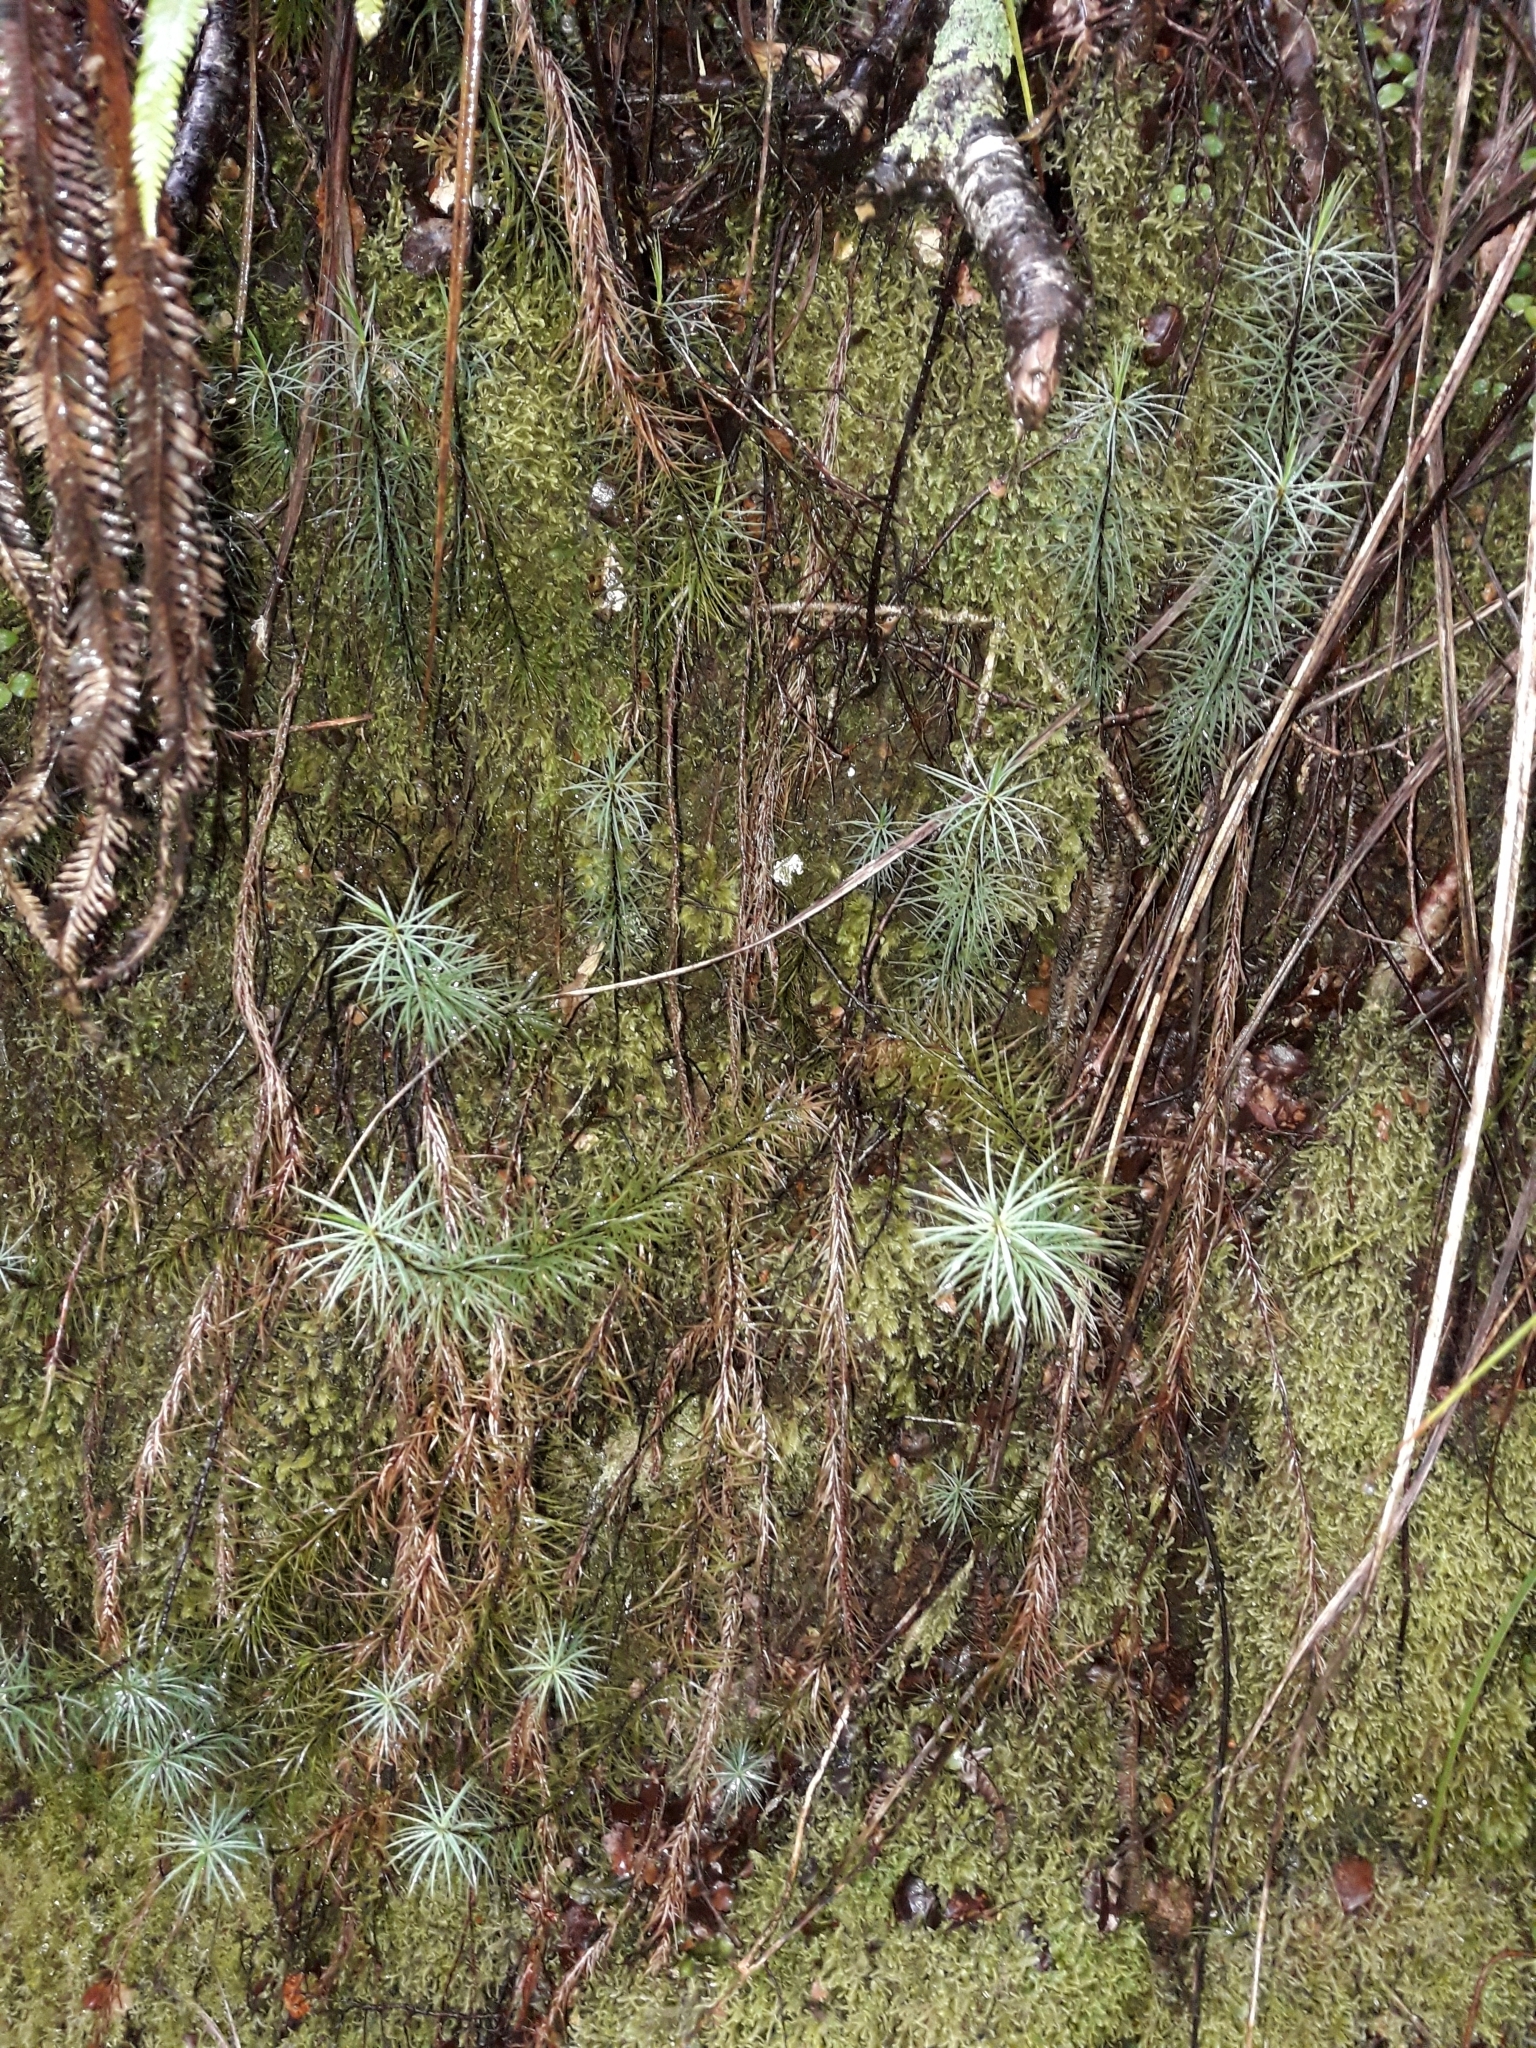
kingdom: Plantae
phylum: Bryophyta
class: Polytrichopsida
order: Polytrichales
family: Polytrichaceae
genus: Dawsonia
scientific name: Dawsonia superba
